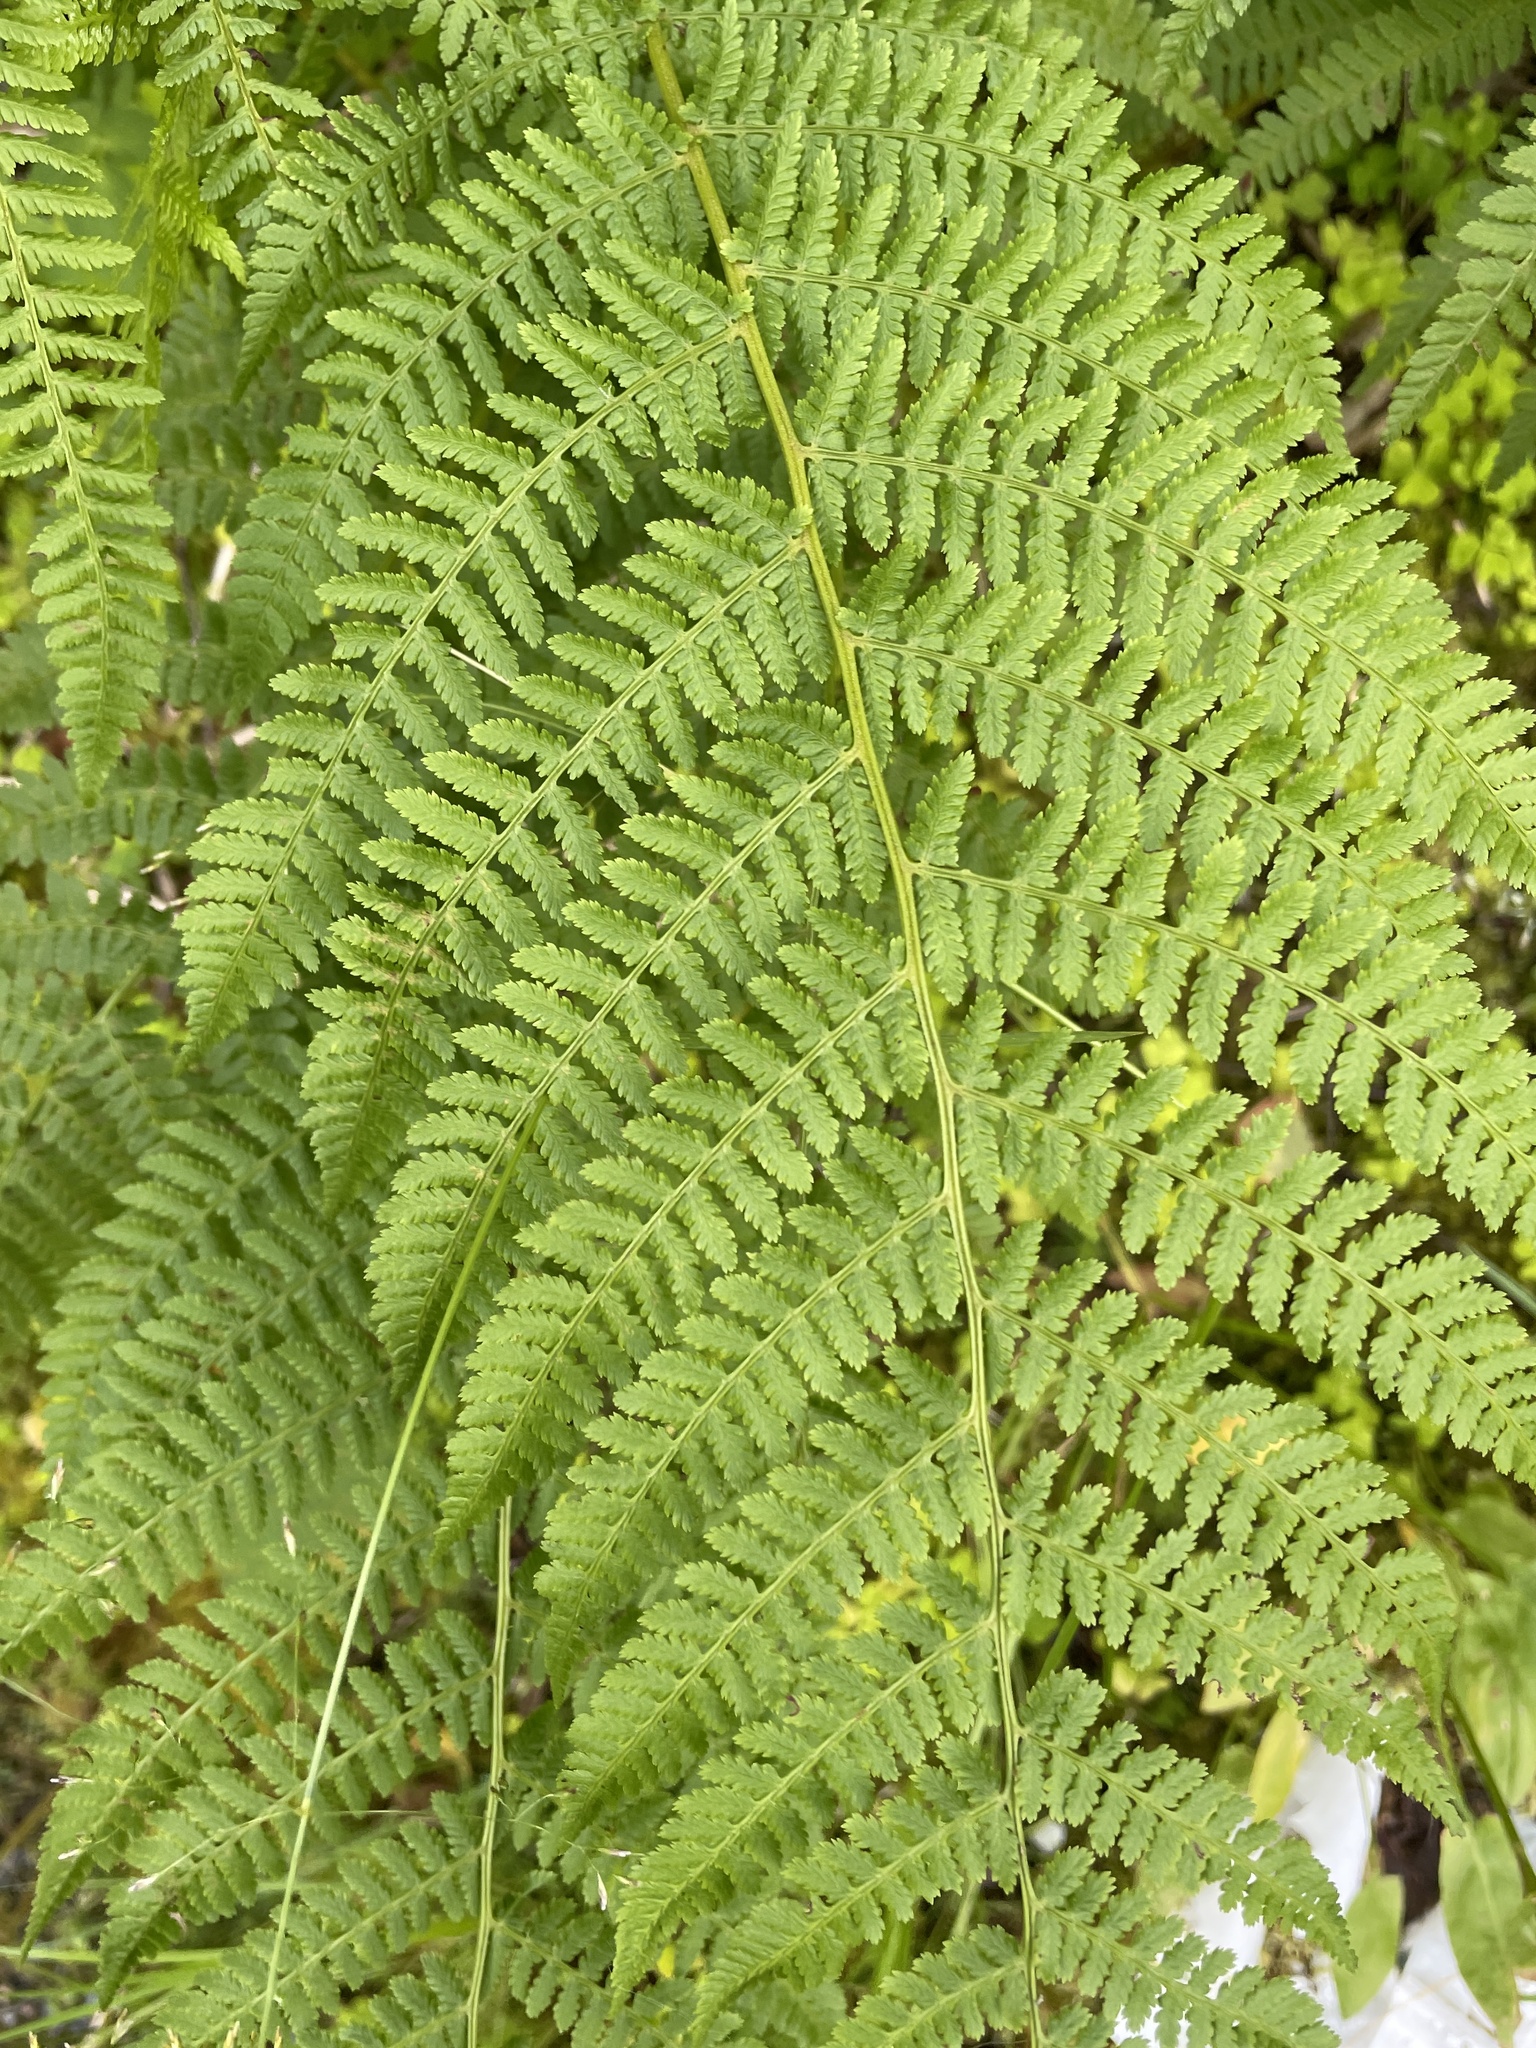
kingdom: Plantae
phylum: Tracheophyta
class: Polypodiopsida
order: Polypodiales
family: Athyriaceae
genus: Athyrium
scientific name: Athyrium filix-femina
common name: Lady fern
